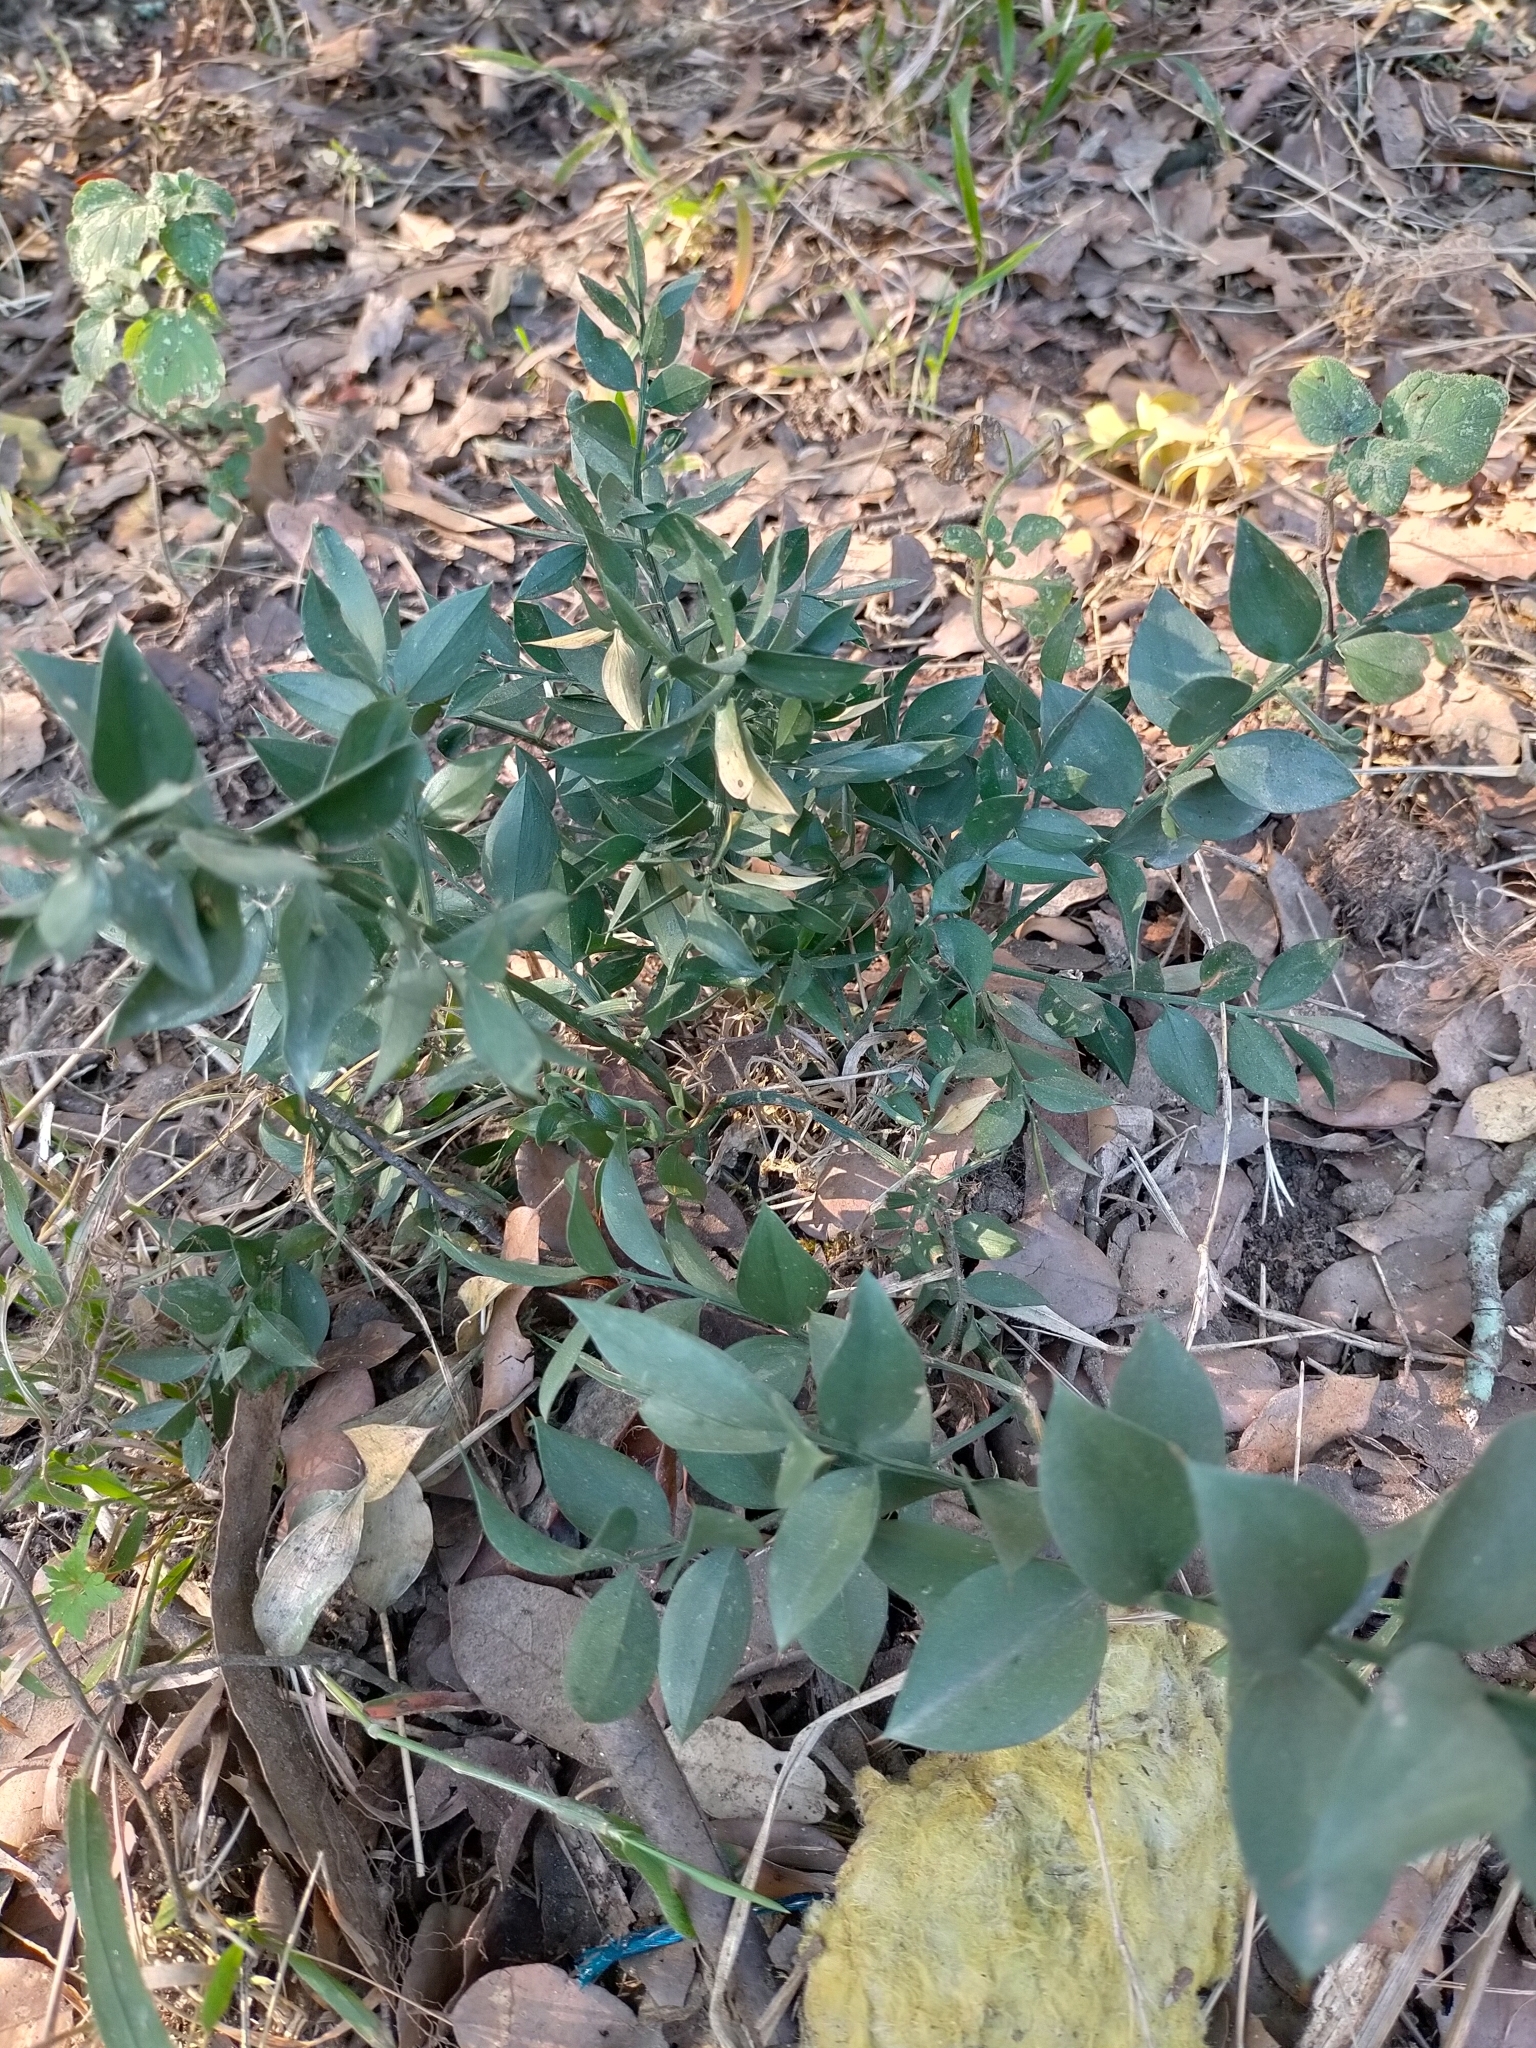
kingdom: Plantae
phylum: Tracheophyta
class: Liliopsida
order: Asparagales
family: Asparagaceae
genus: Ruscus
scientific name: Ruscus aculeatus
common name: Butcher's-broom
